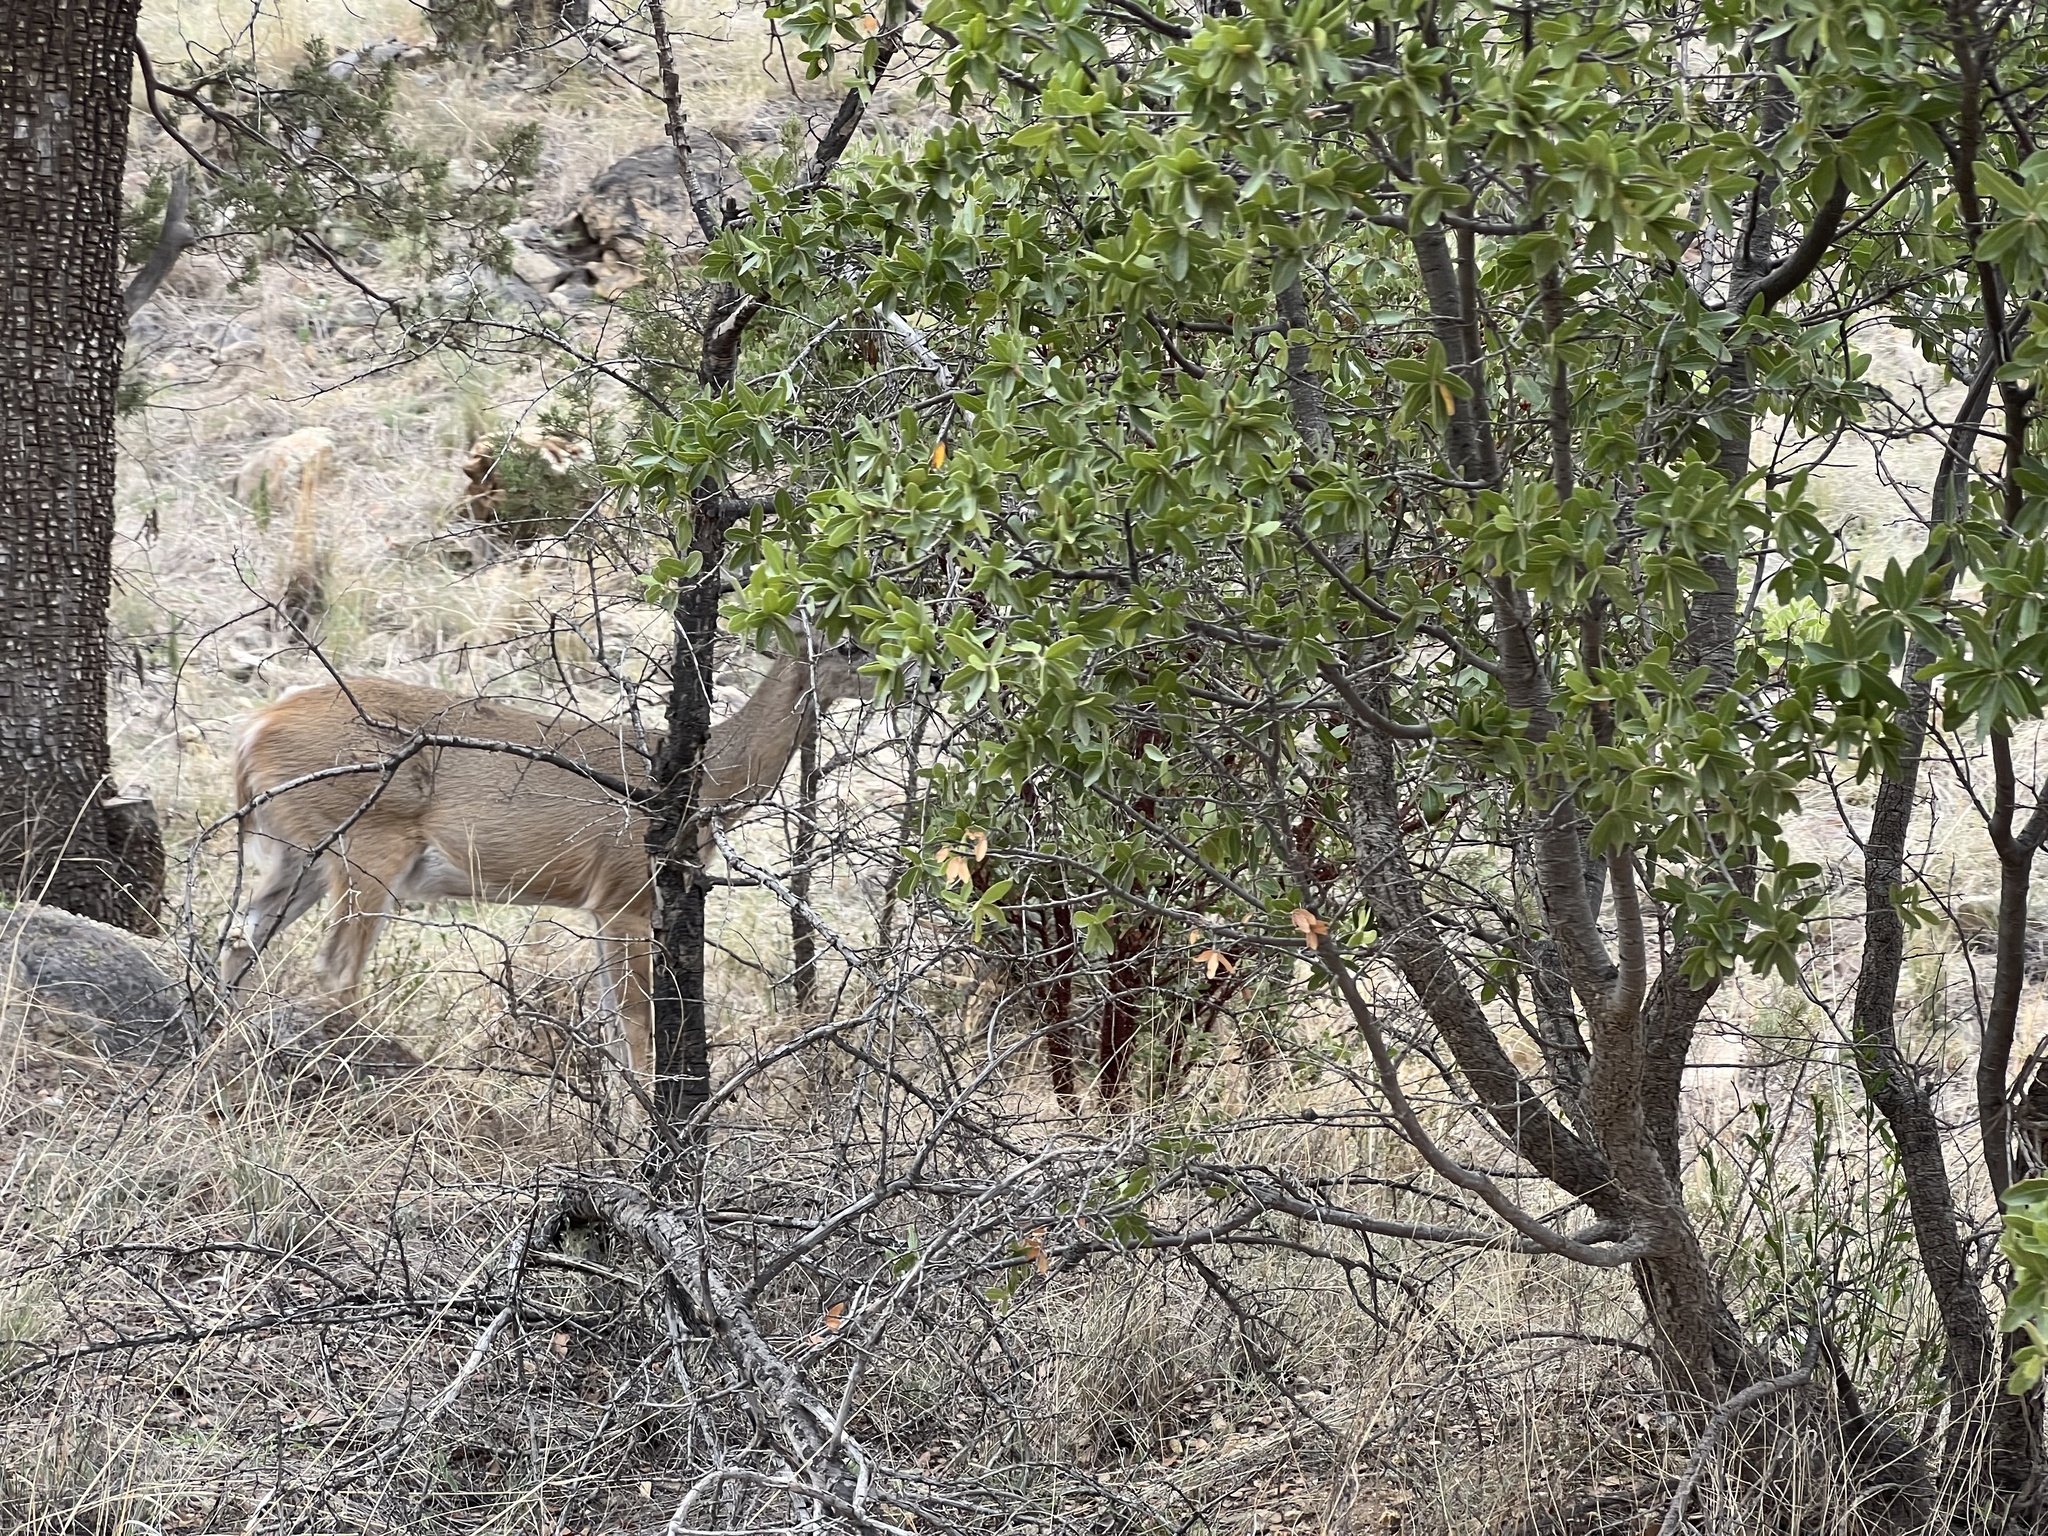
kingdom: Animalia
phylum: Chordata
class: Mammalia
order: Artiodactyla
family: Cervidae
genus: Odocoileus
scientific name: Odocoileus virginianus
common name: White-tailed deer
